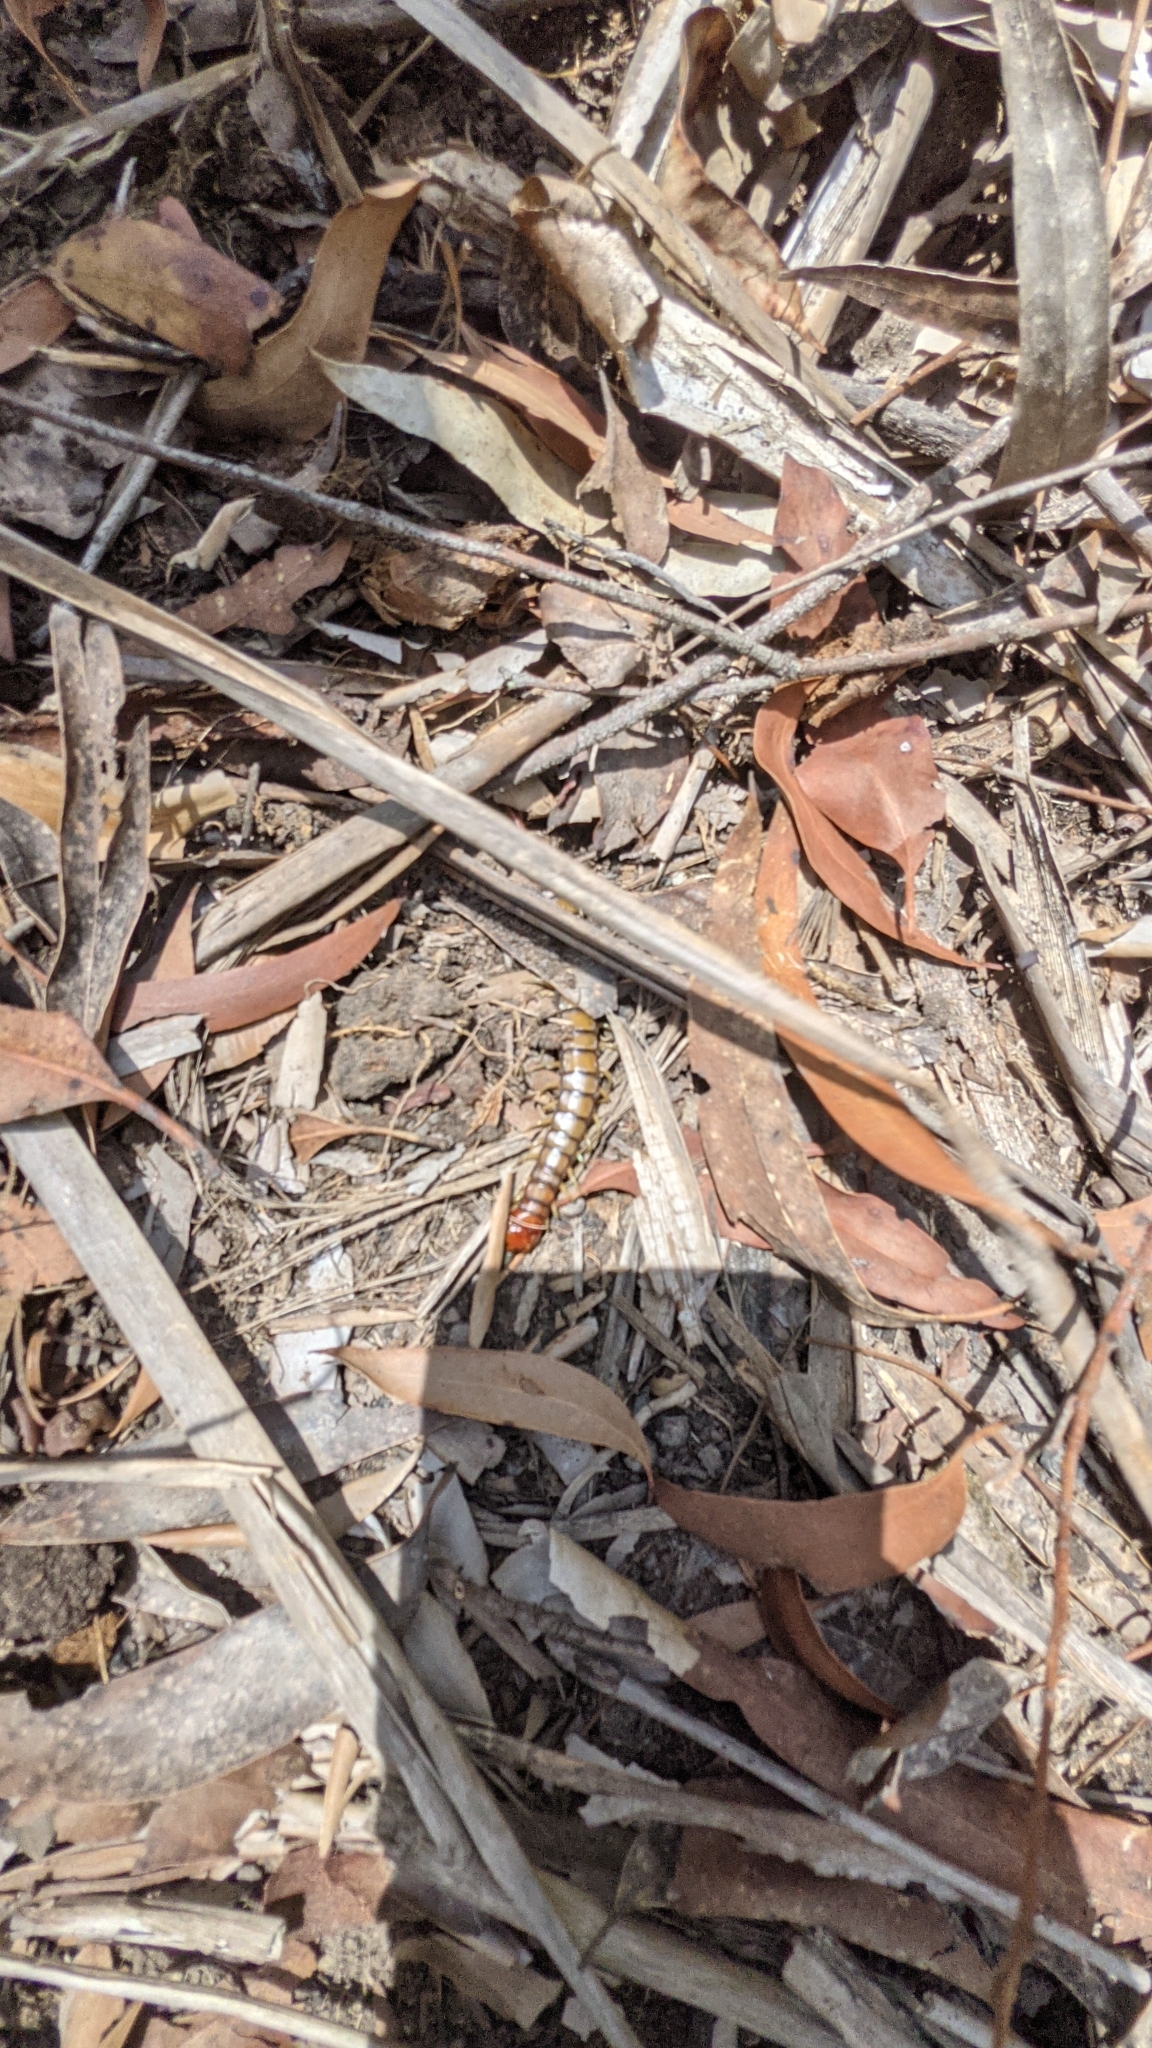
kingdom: Animalia
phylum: Arthropoda
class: Chilopoda
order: Scolopendromorpha
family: Scolopendridae
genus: Cormocephalus
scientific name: Cormocephalus aurantiipes
